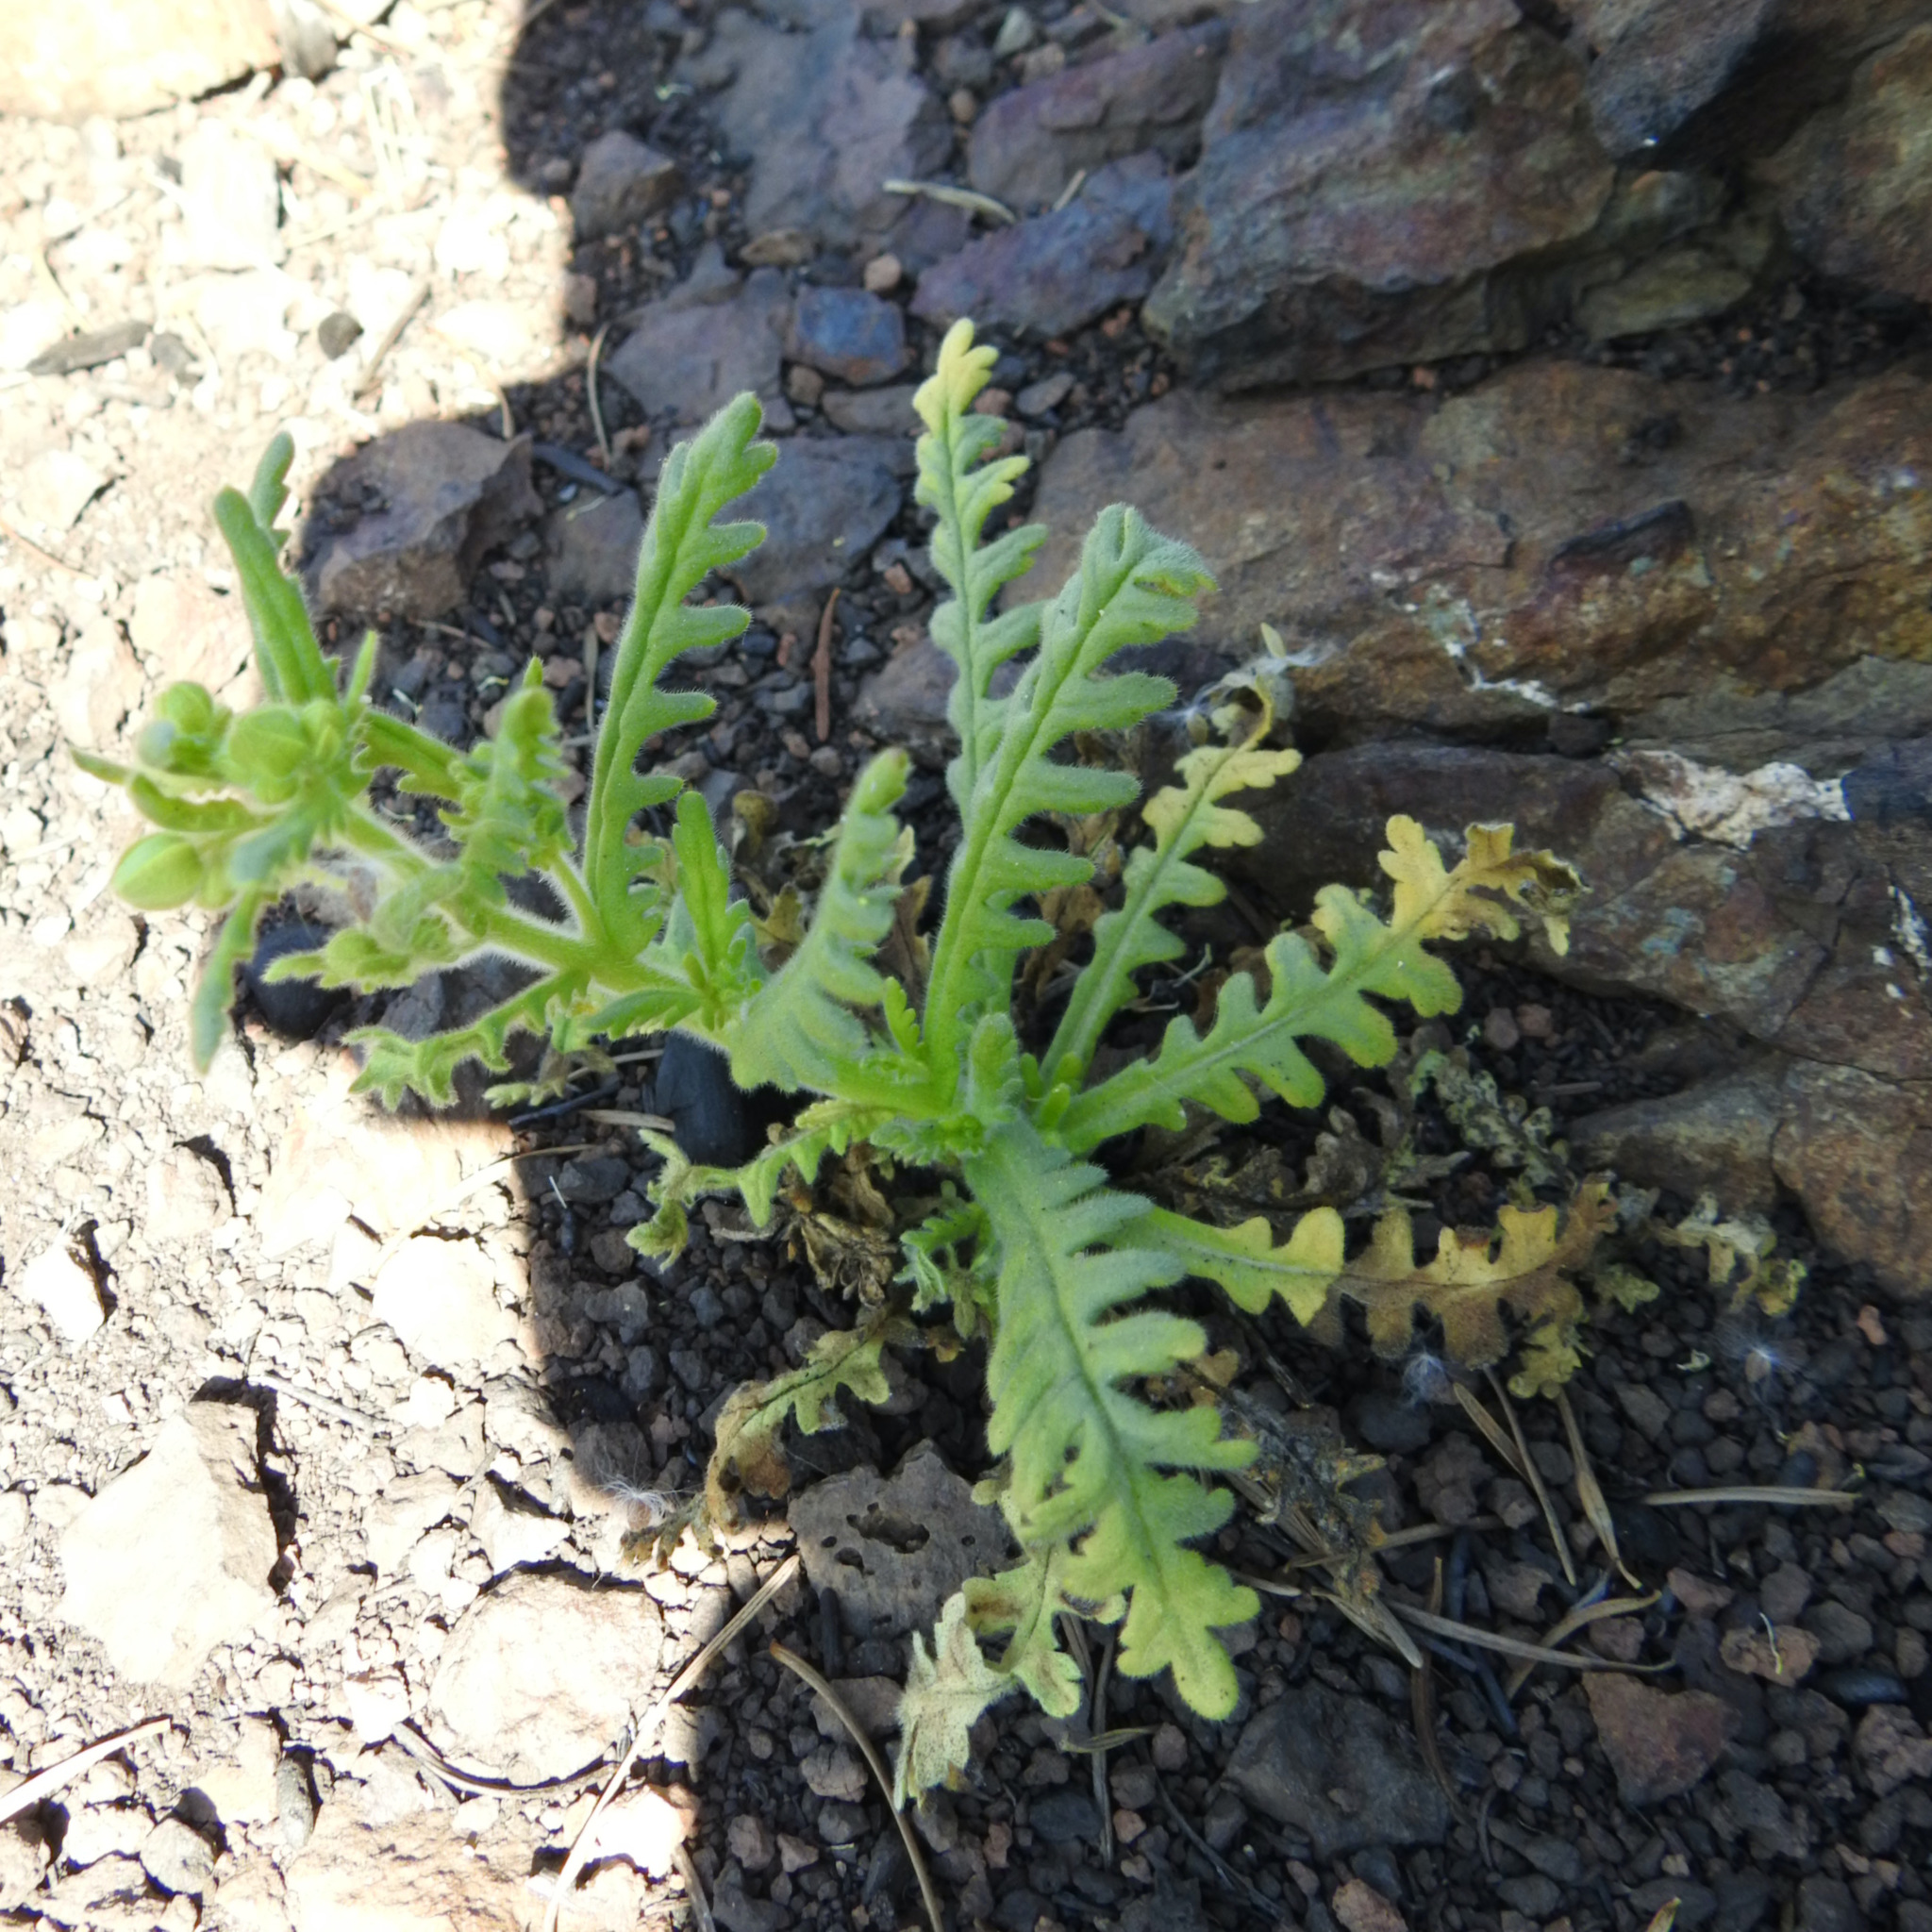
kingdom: Plantae
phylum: Tracheophyta
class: Magnoliopsida
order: Boraginales
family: Hydrophyllaceae
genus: Emmenanthe
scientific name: Emmenanthe penduliflora
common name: Whispering-bells
